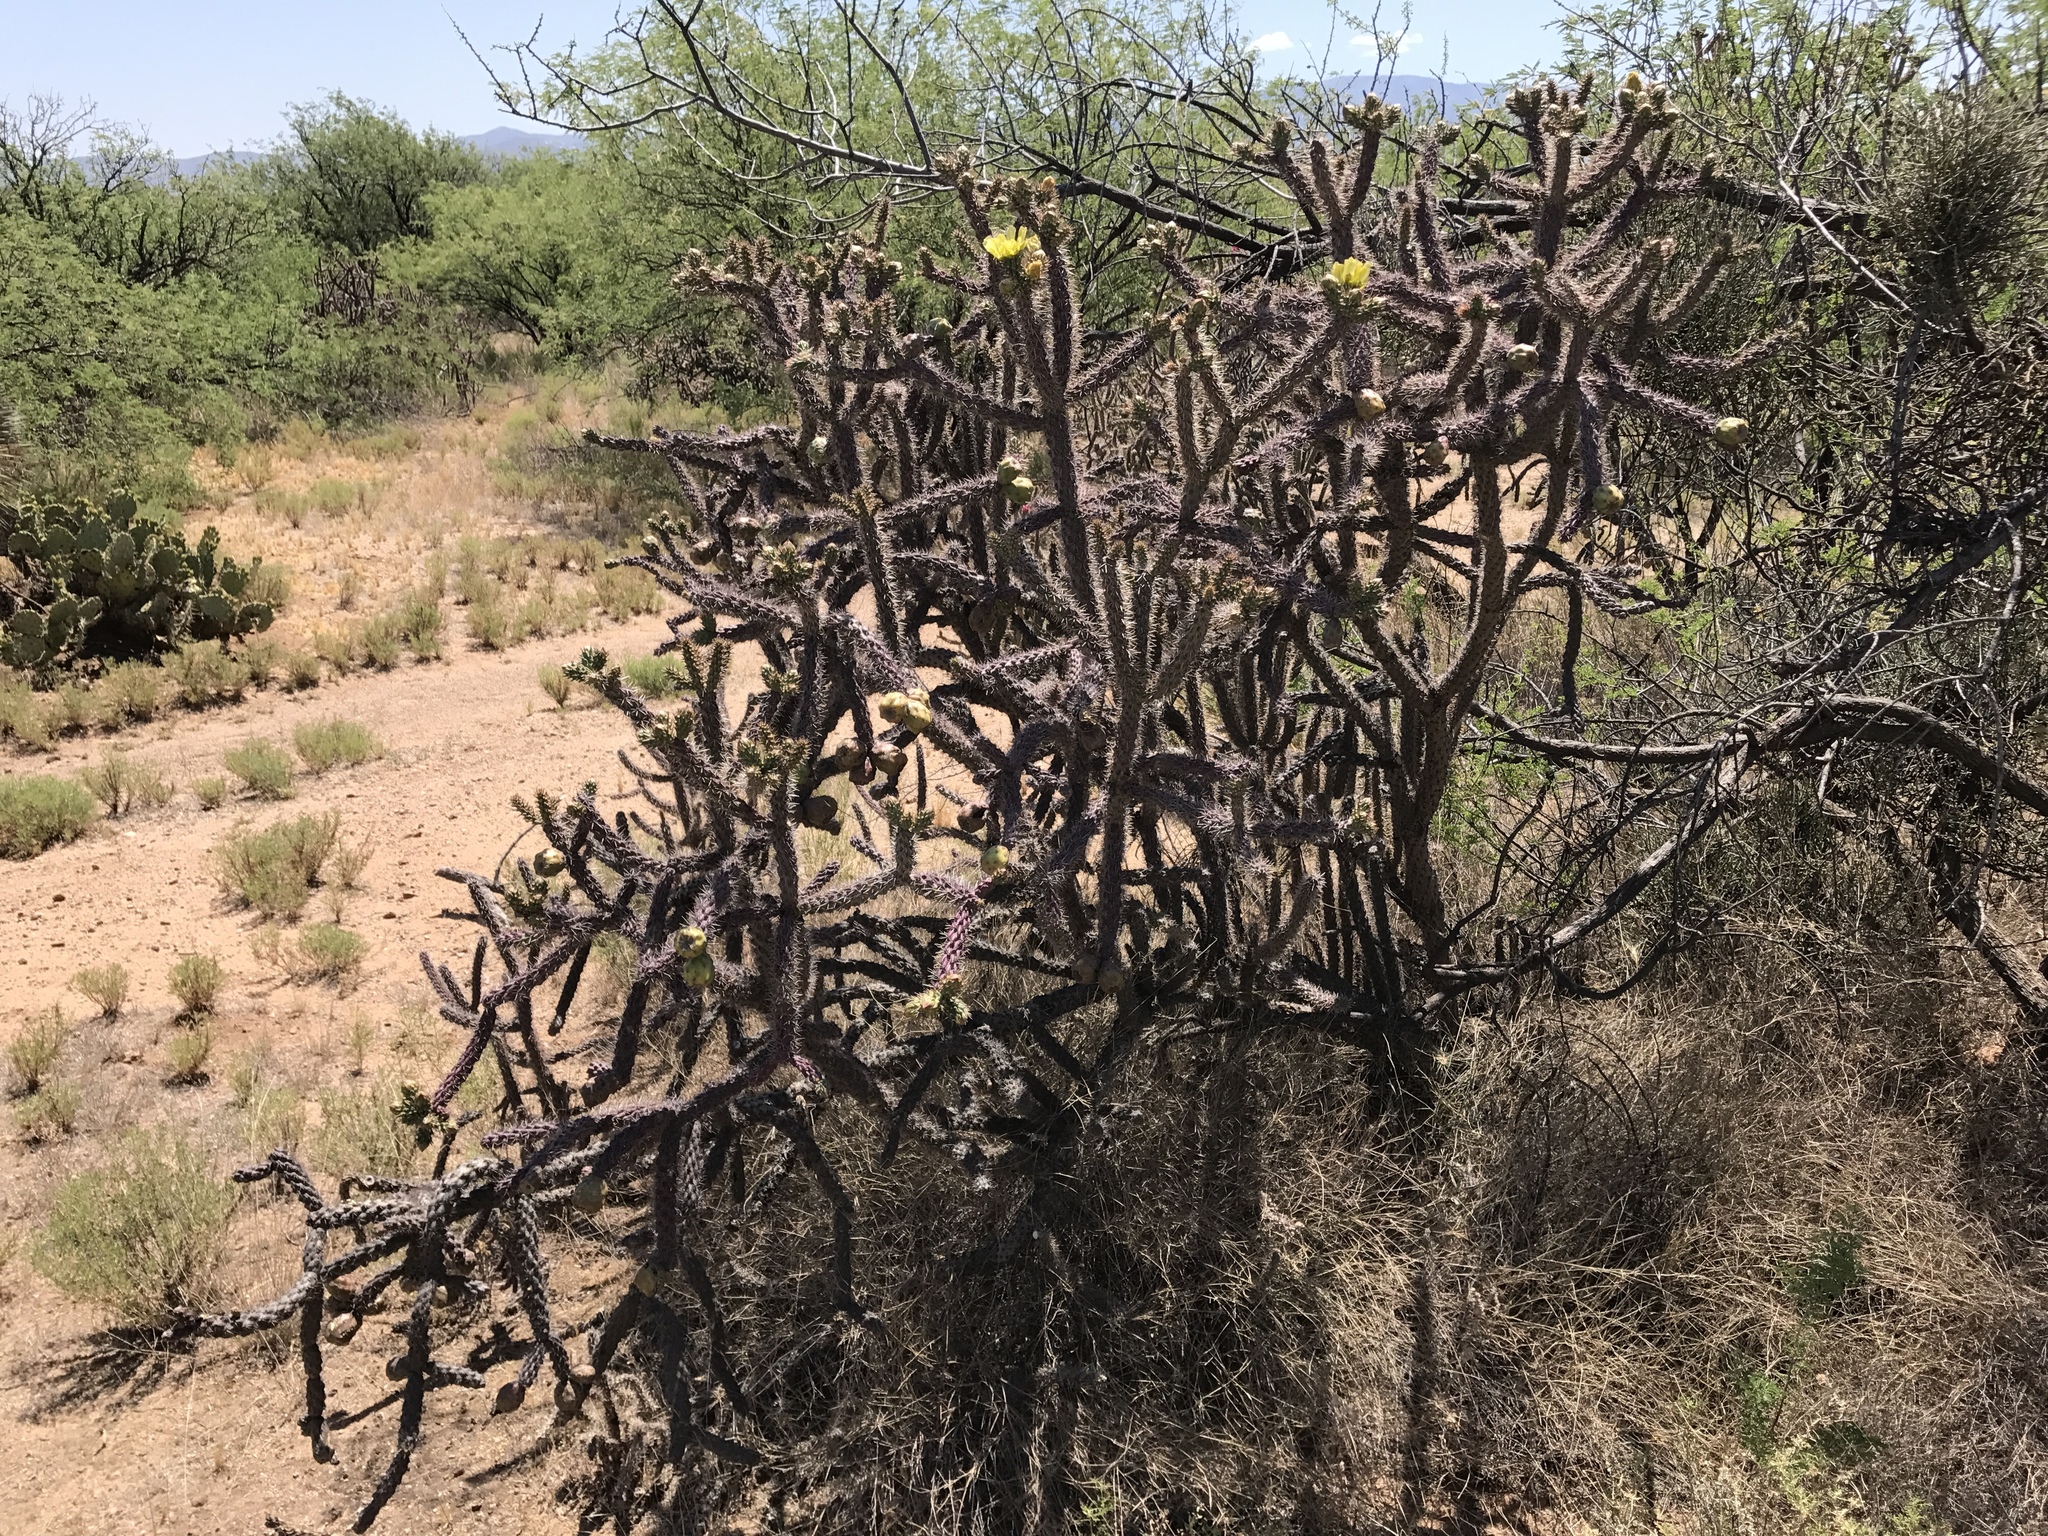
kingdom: Plantae
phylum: Tracheophyta
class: Magnoliopsida
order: Caryophyllales
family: Cactaceae
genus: Cylindropuntia
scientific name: Cylindropuntia thurberi
